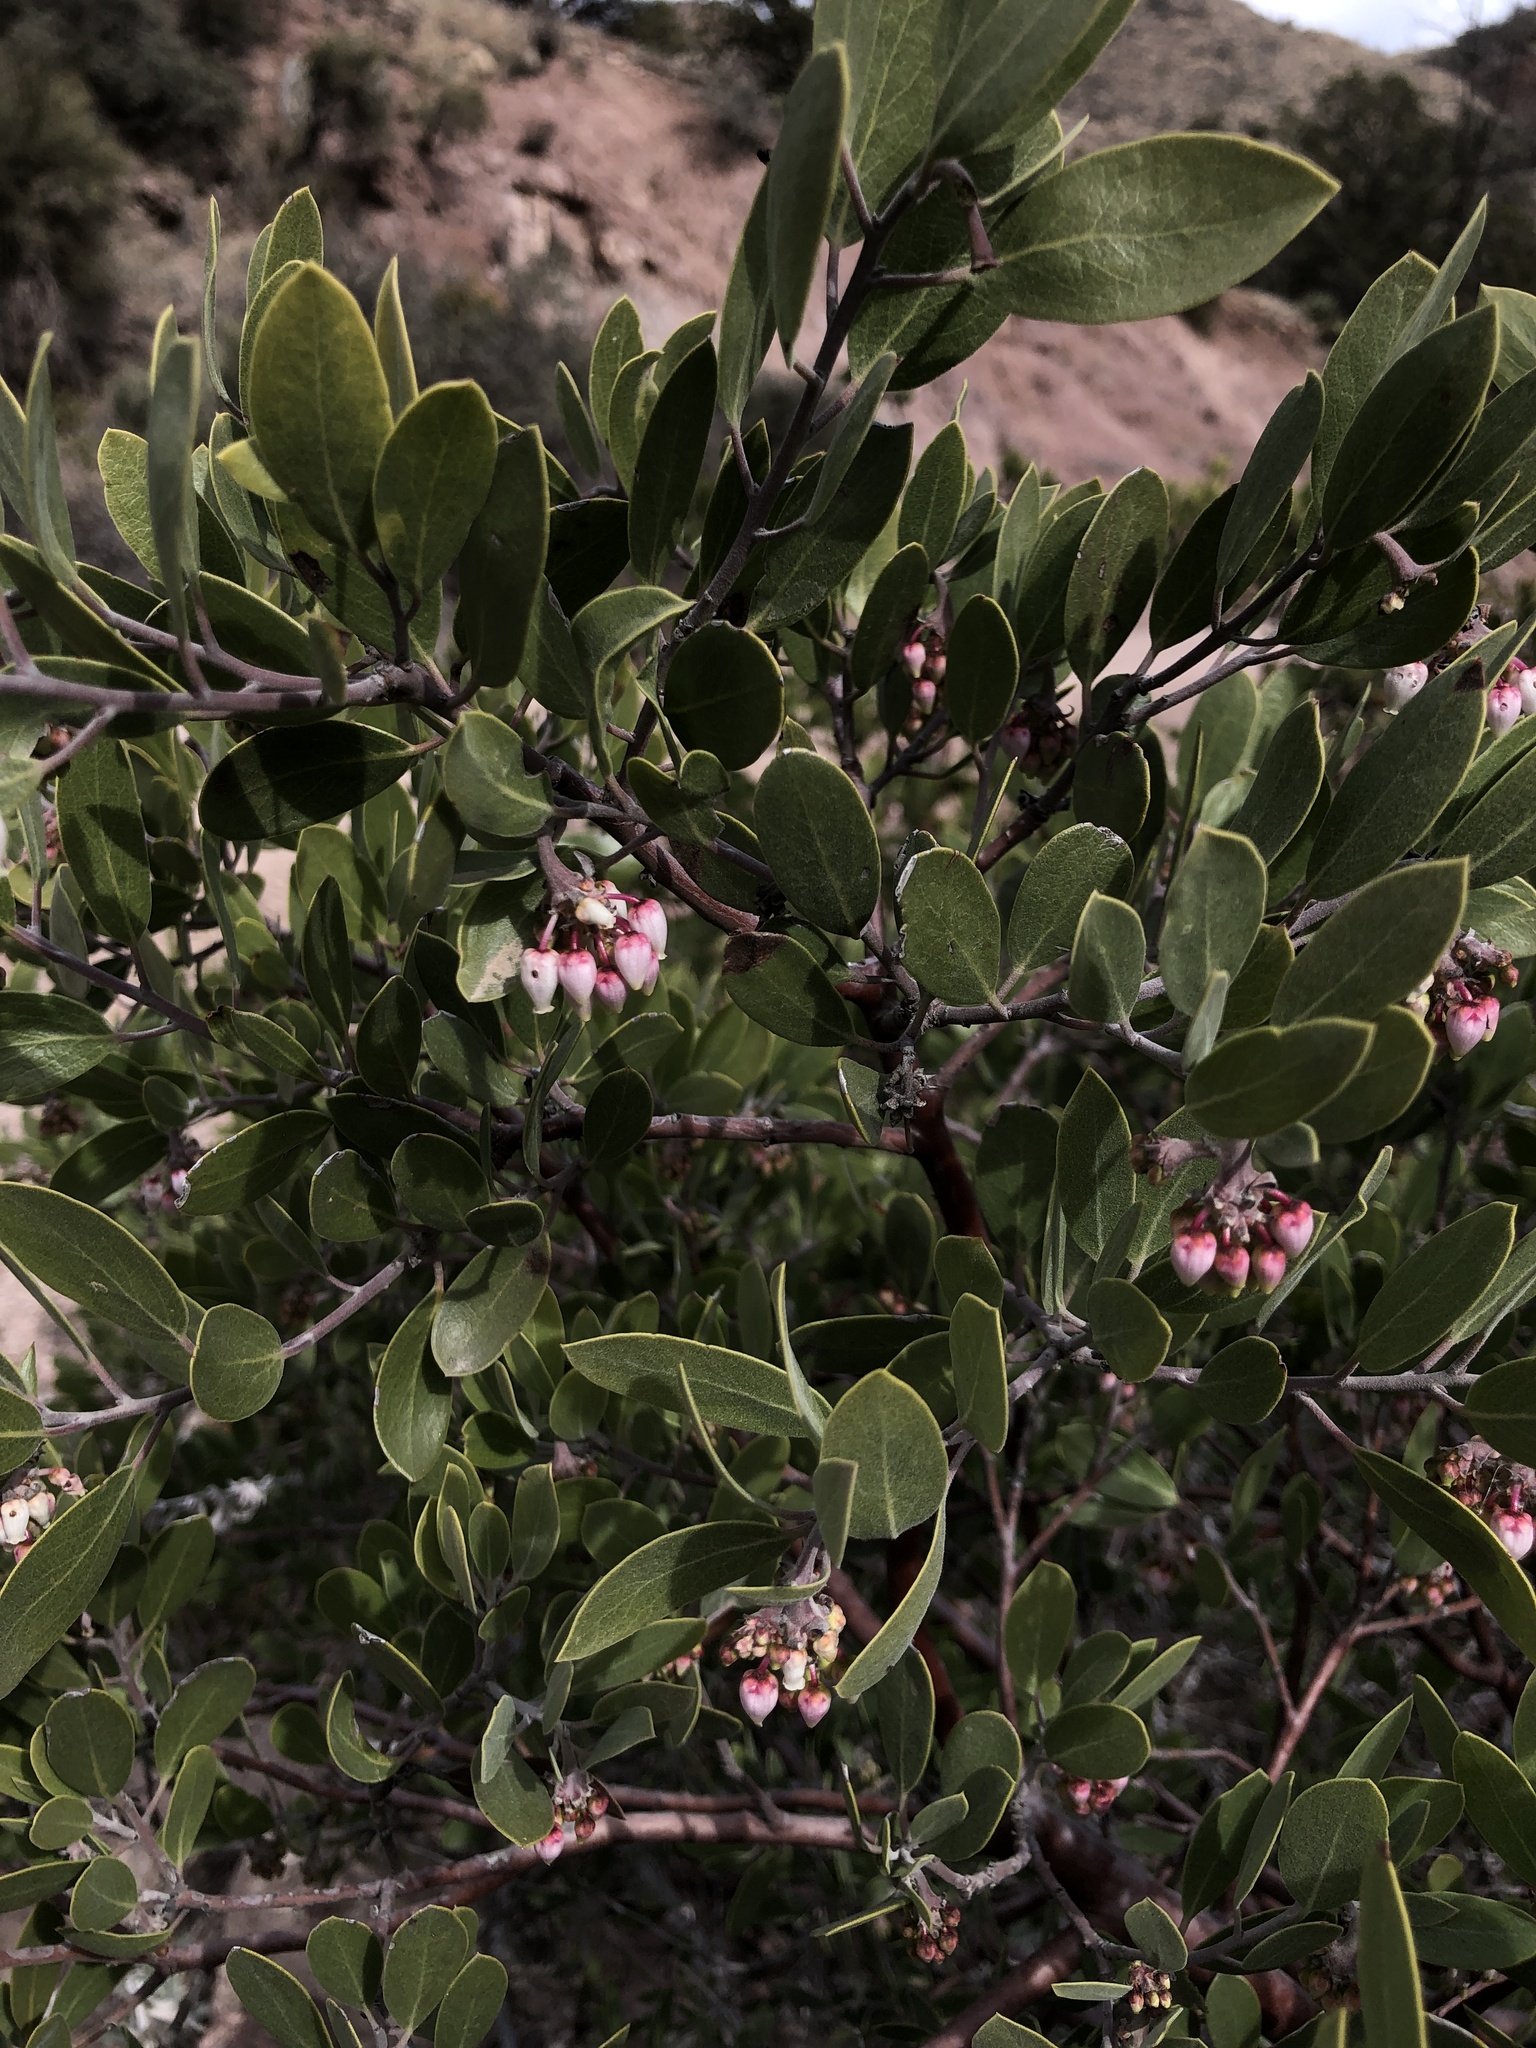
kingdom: Plantae
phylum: Tracheophyta
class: Magnoliopsida
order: Ericales
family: Ericaceae
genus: Arctostaphylos
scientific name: Arctostaphylos pungens
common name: Mexican manzanita
